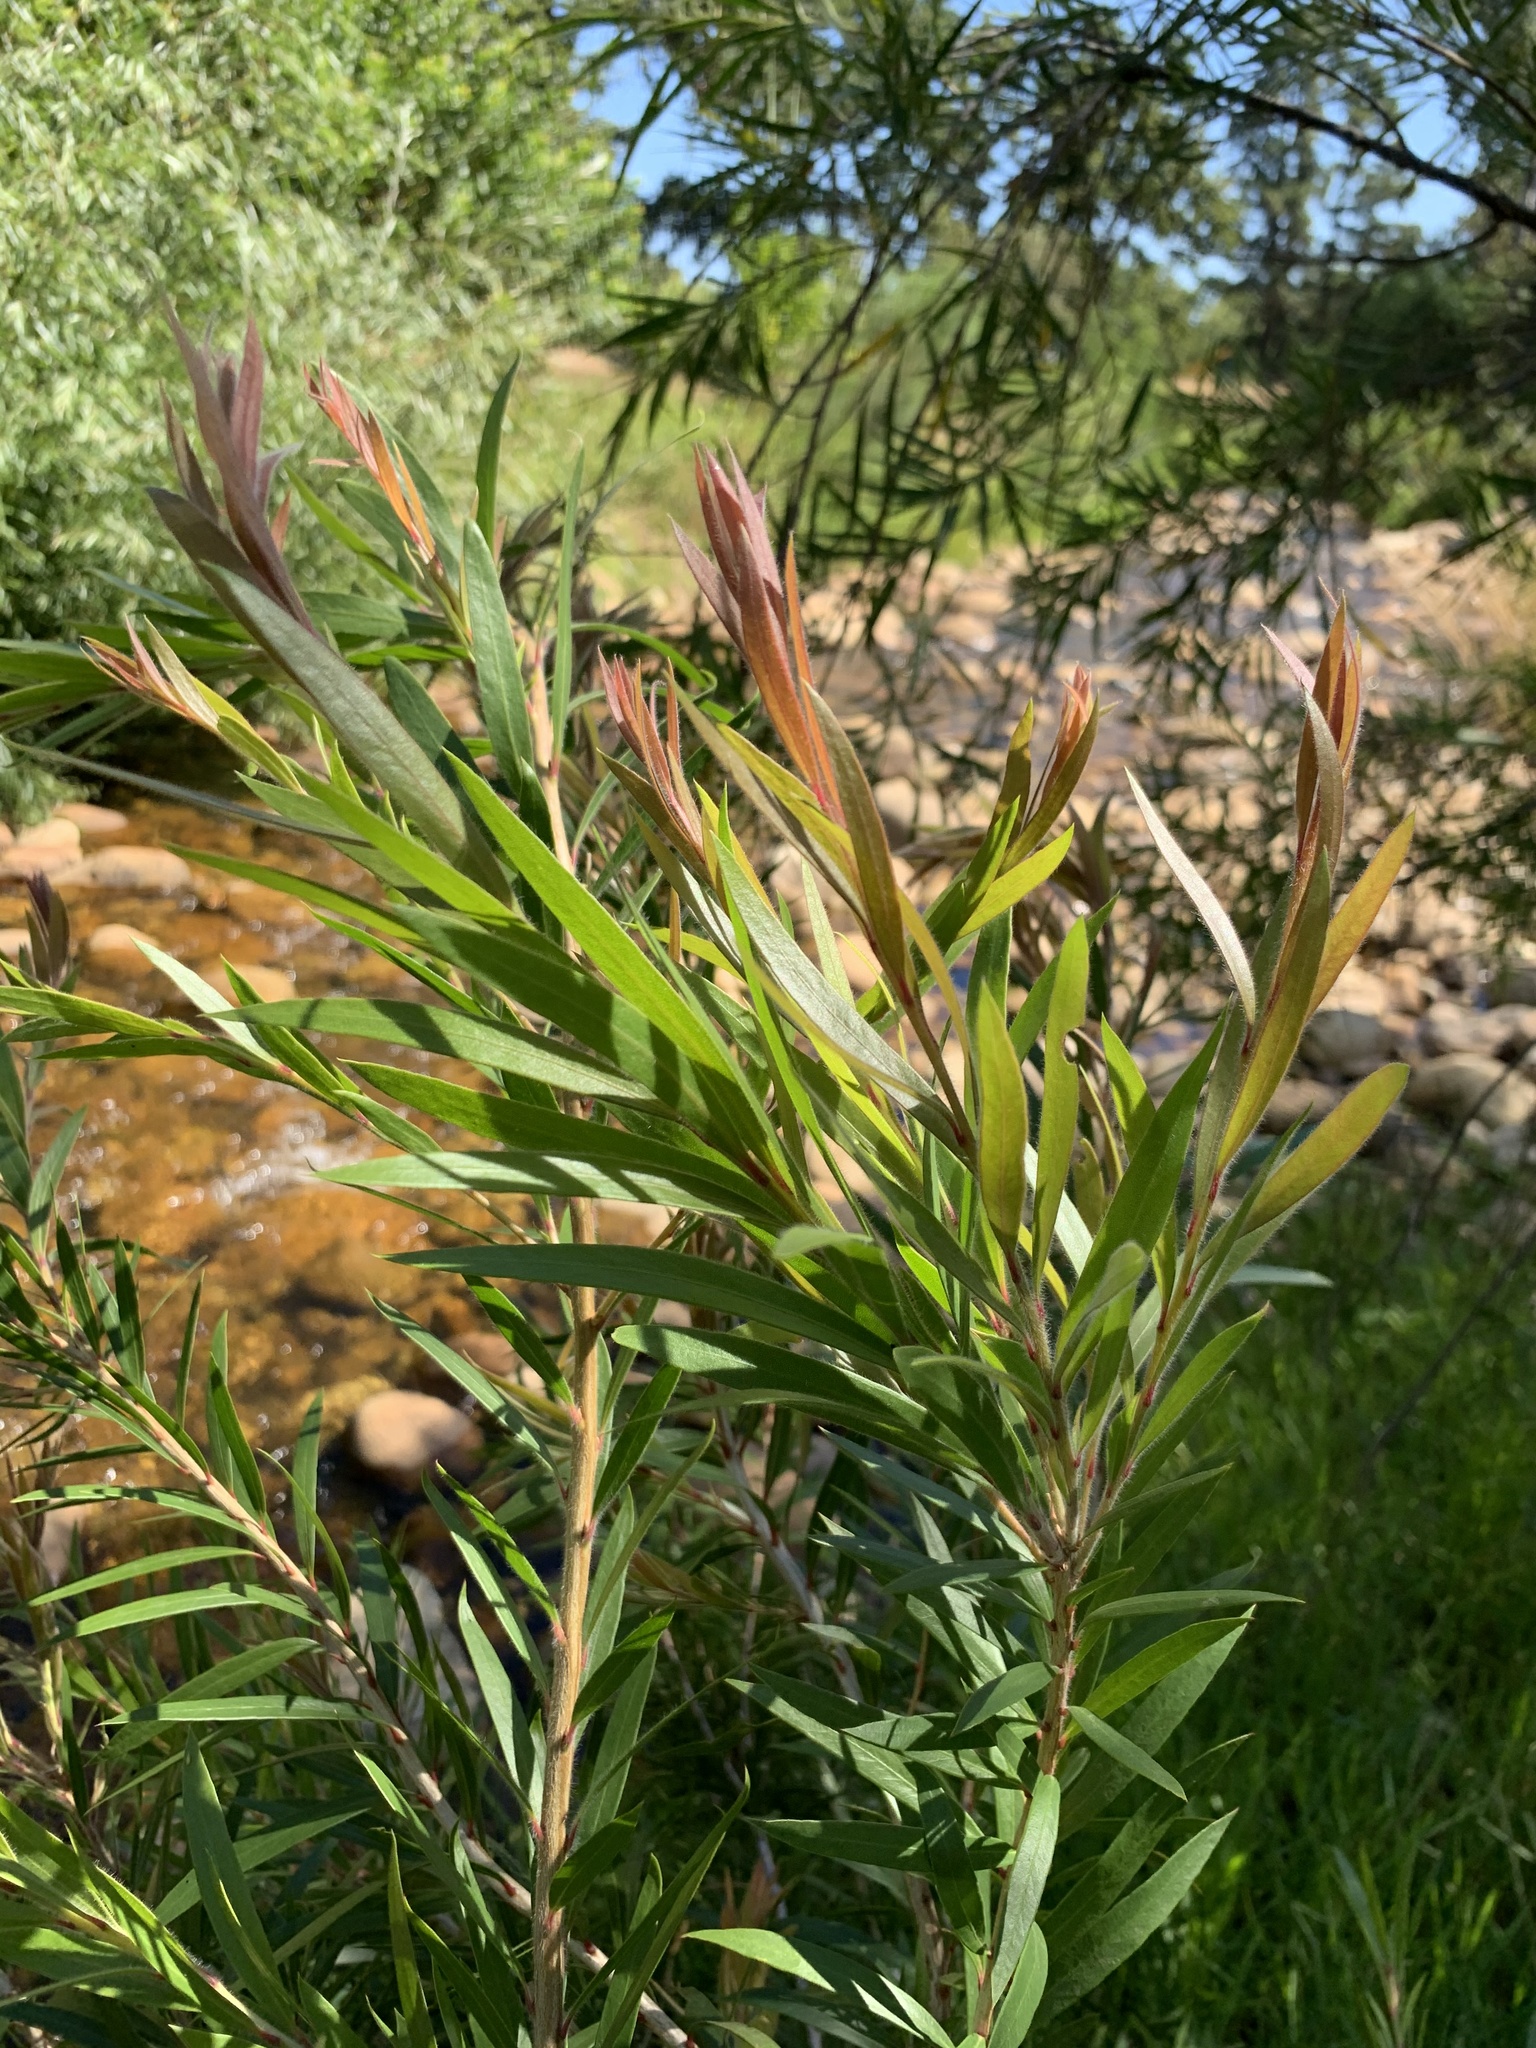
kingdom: Plantae
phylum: Tracheophyta
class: Magnoliopsida
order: Myrtales
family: Myrtaceae
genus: Callistemon
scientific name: Callistemon viminalis
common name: Drooping bottlebrush
